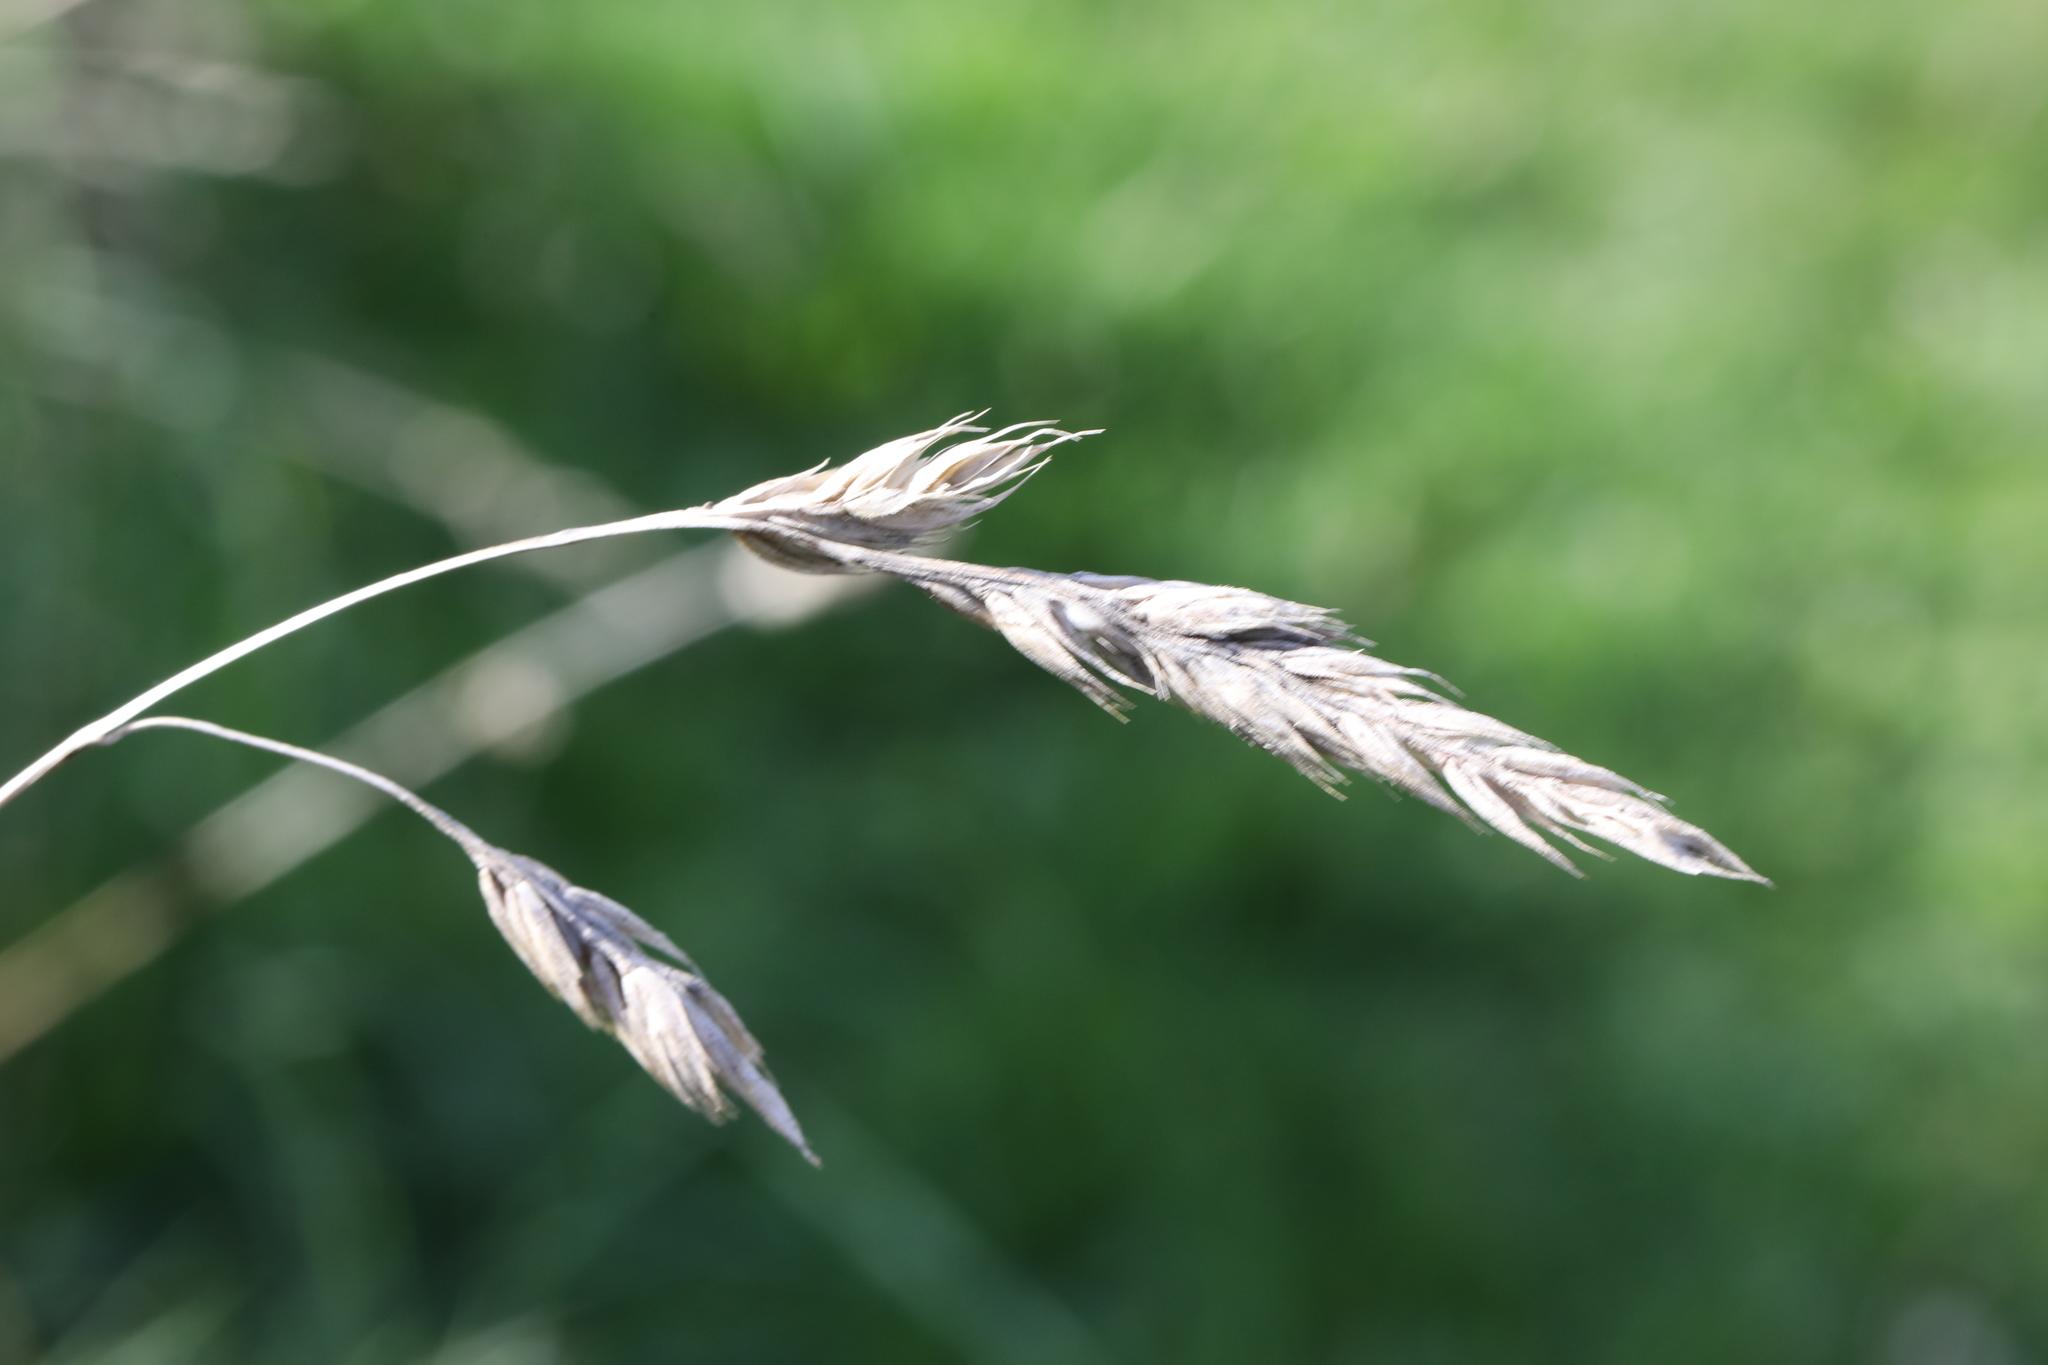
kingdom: Plantae
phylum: Tracheophyta
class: Liliopsida
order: Poales
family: Poaceae
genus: Dactylis
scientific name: Dactylis glomerata
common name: Orchardgrass
